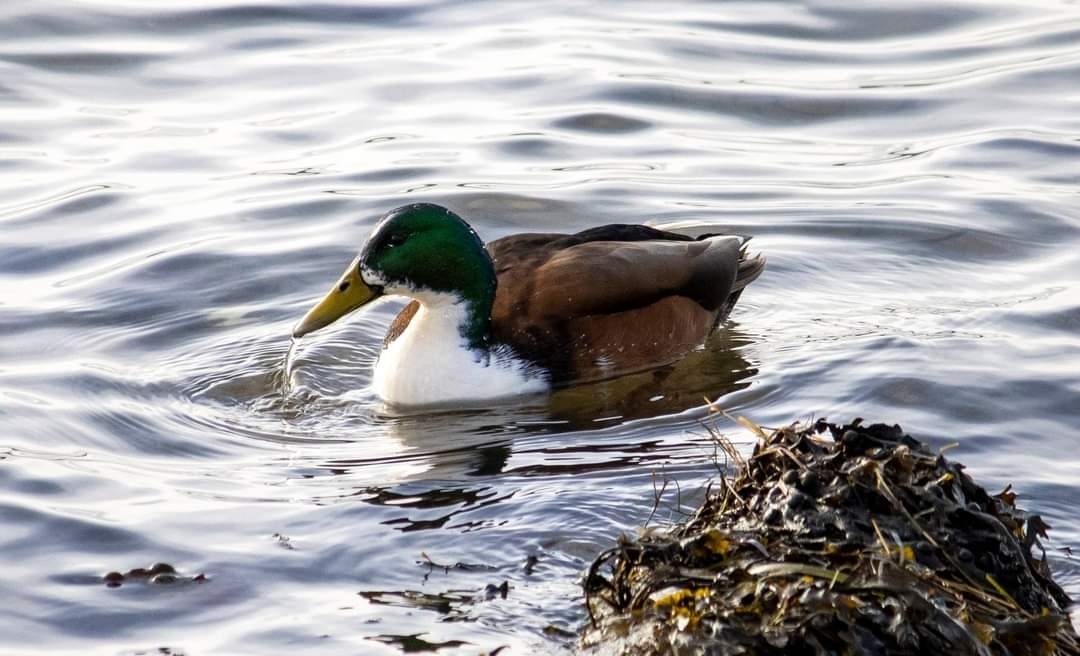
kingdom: Animalia
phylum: Chordata
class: Aves
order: Anseriformes
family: Anatidae
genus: Anas
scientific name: Anas platyrhynchos
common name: Mallard
